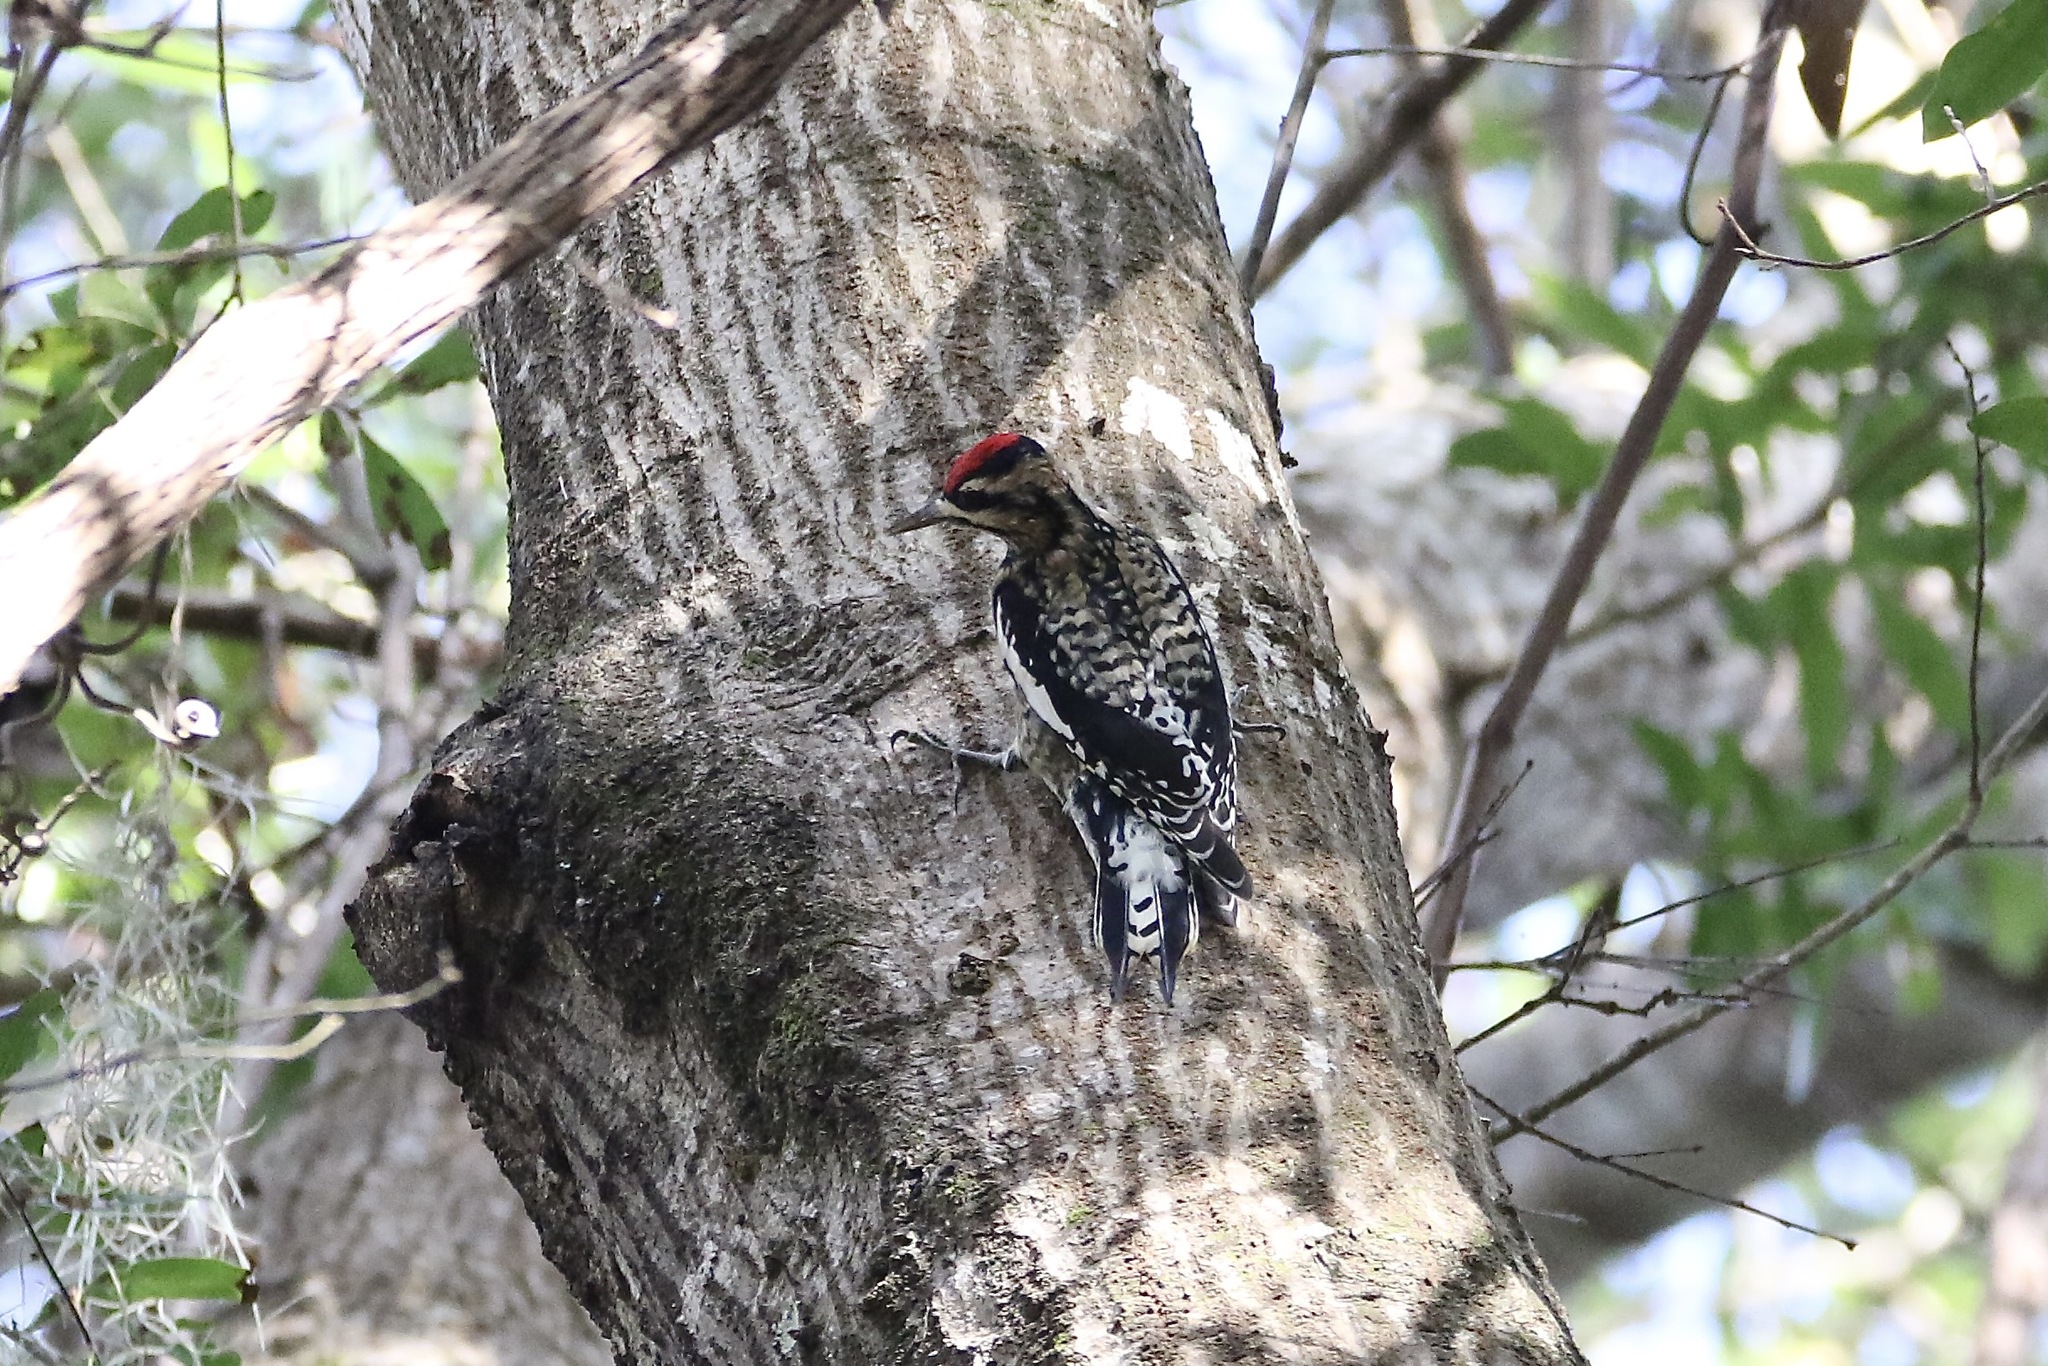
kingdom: Animalia
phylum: Chordata
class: Aves
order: Piciformes
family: Picidae
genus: Sphyrapicus
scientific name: Sphyrapicus varius
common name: Yellow-bellied sapsucker
